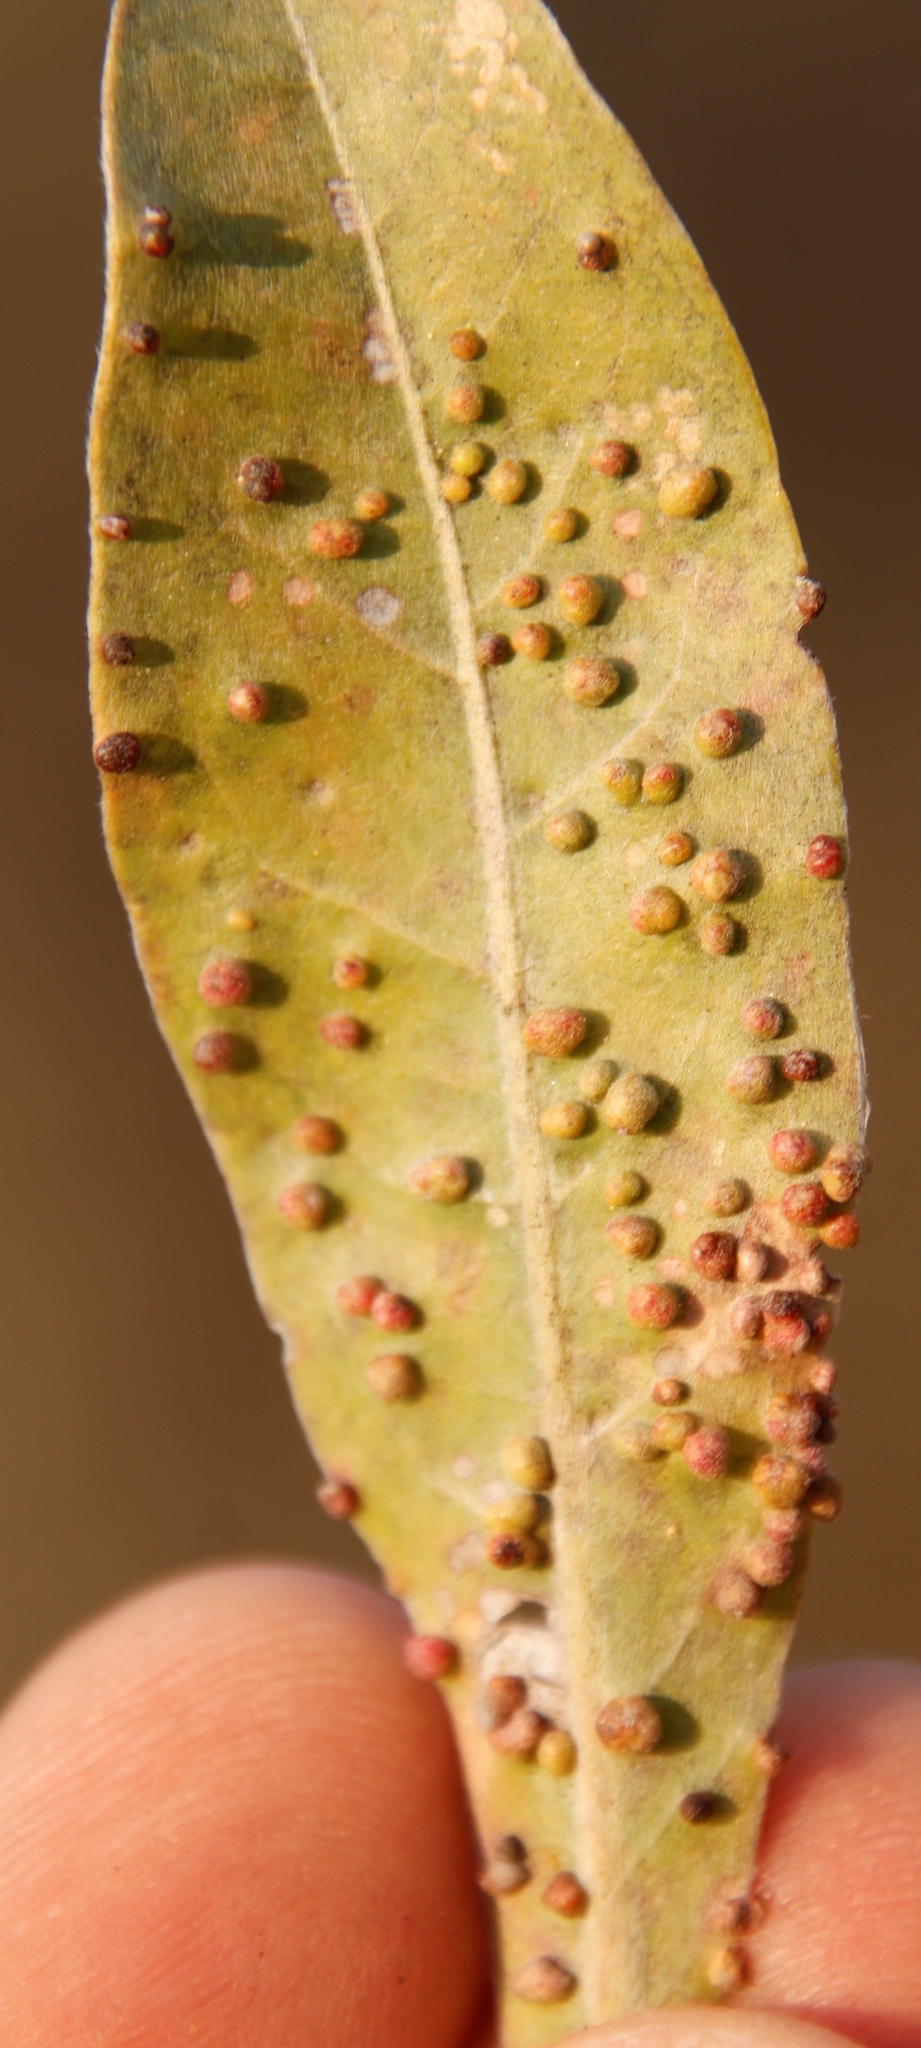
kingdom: Plantae
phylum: Tracheophyta
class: Magnoliopsida
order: Myrtales
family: Combretaceae
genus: Terminalia
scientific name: Terminalia sericea
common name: Clusterleaf
